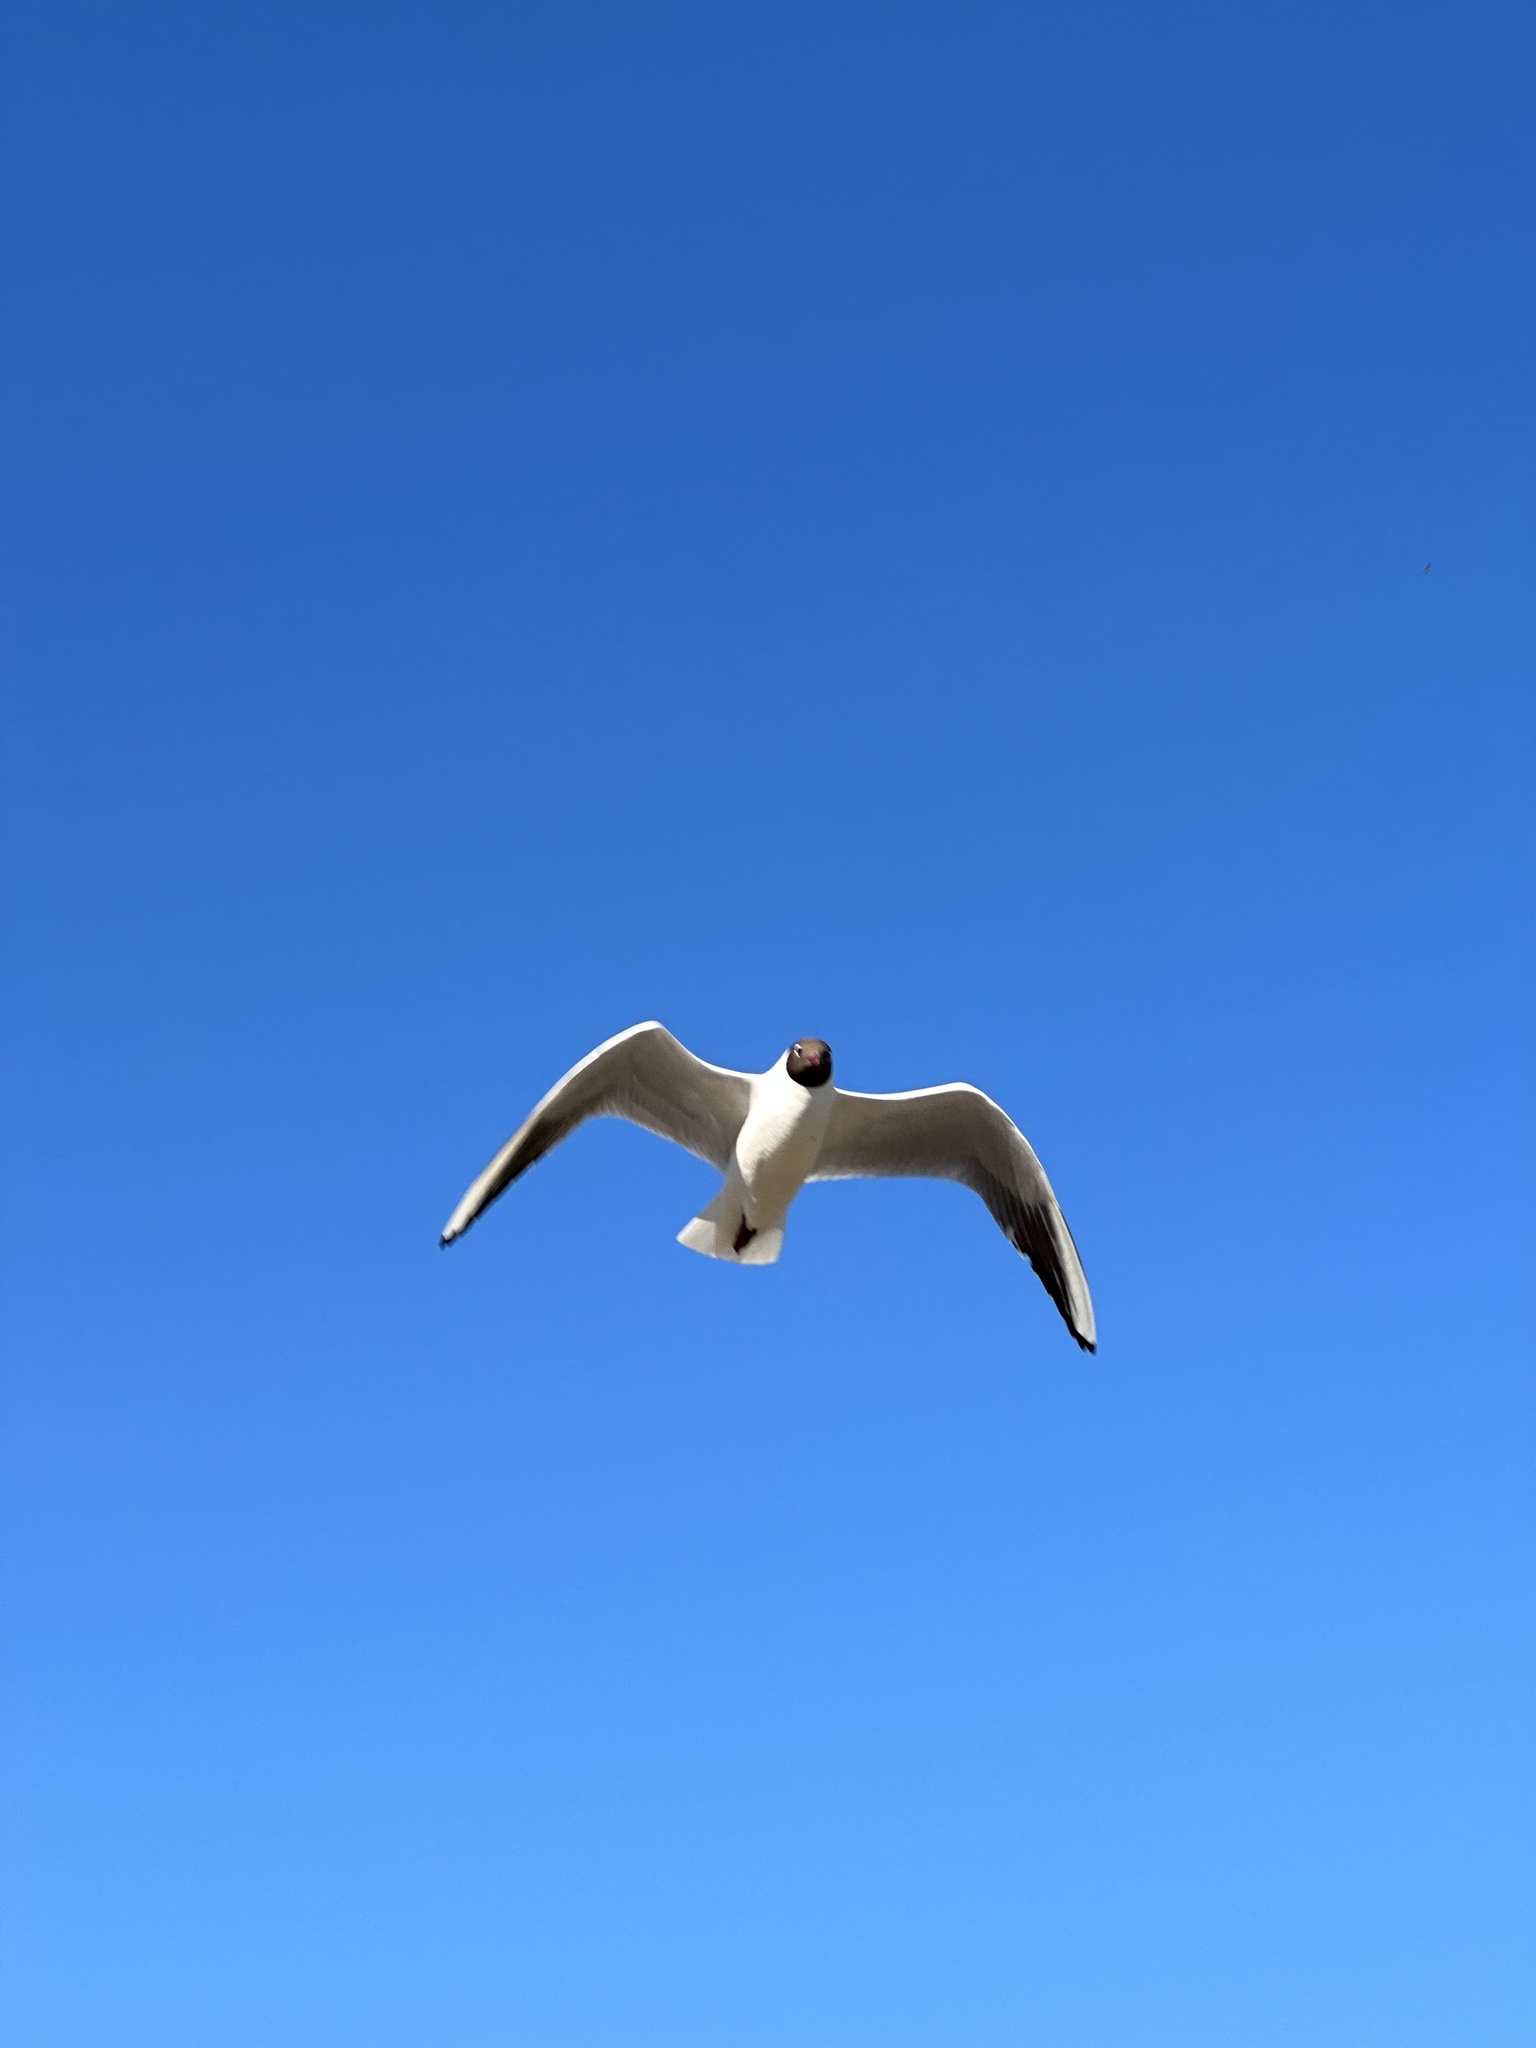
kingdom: Animalia
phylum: Chordata
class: Aves
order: Charadriiformes
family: Laridae
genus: Chroicocephalus
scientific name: Chroicocephalus ridibundus
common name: Black-headed gull
